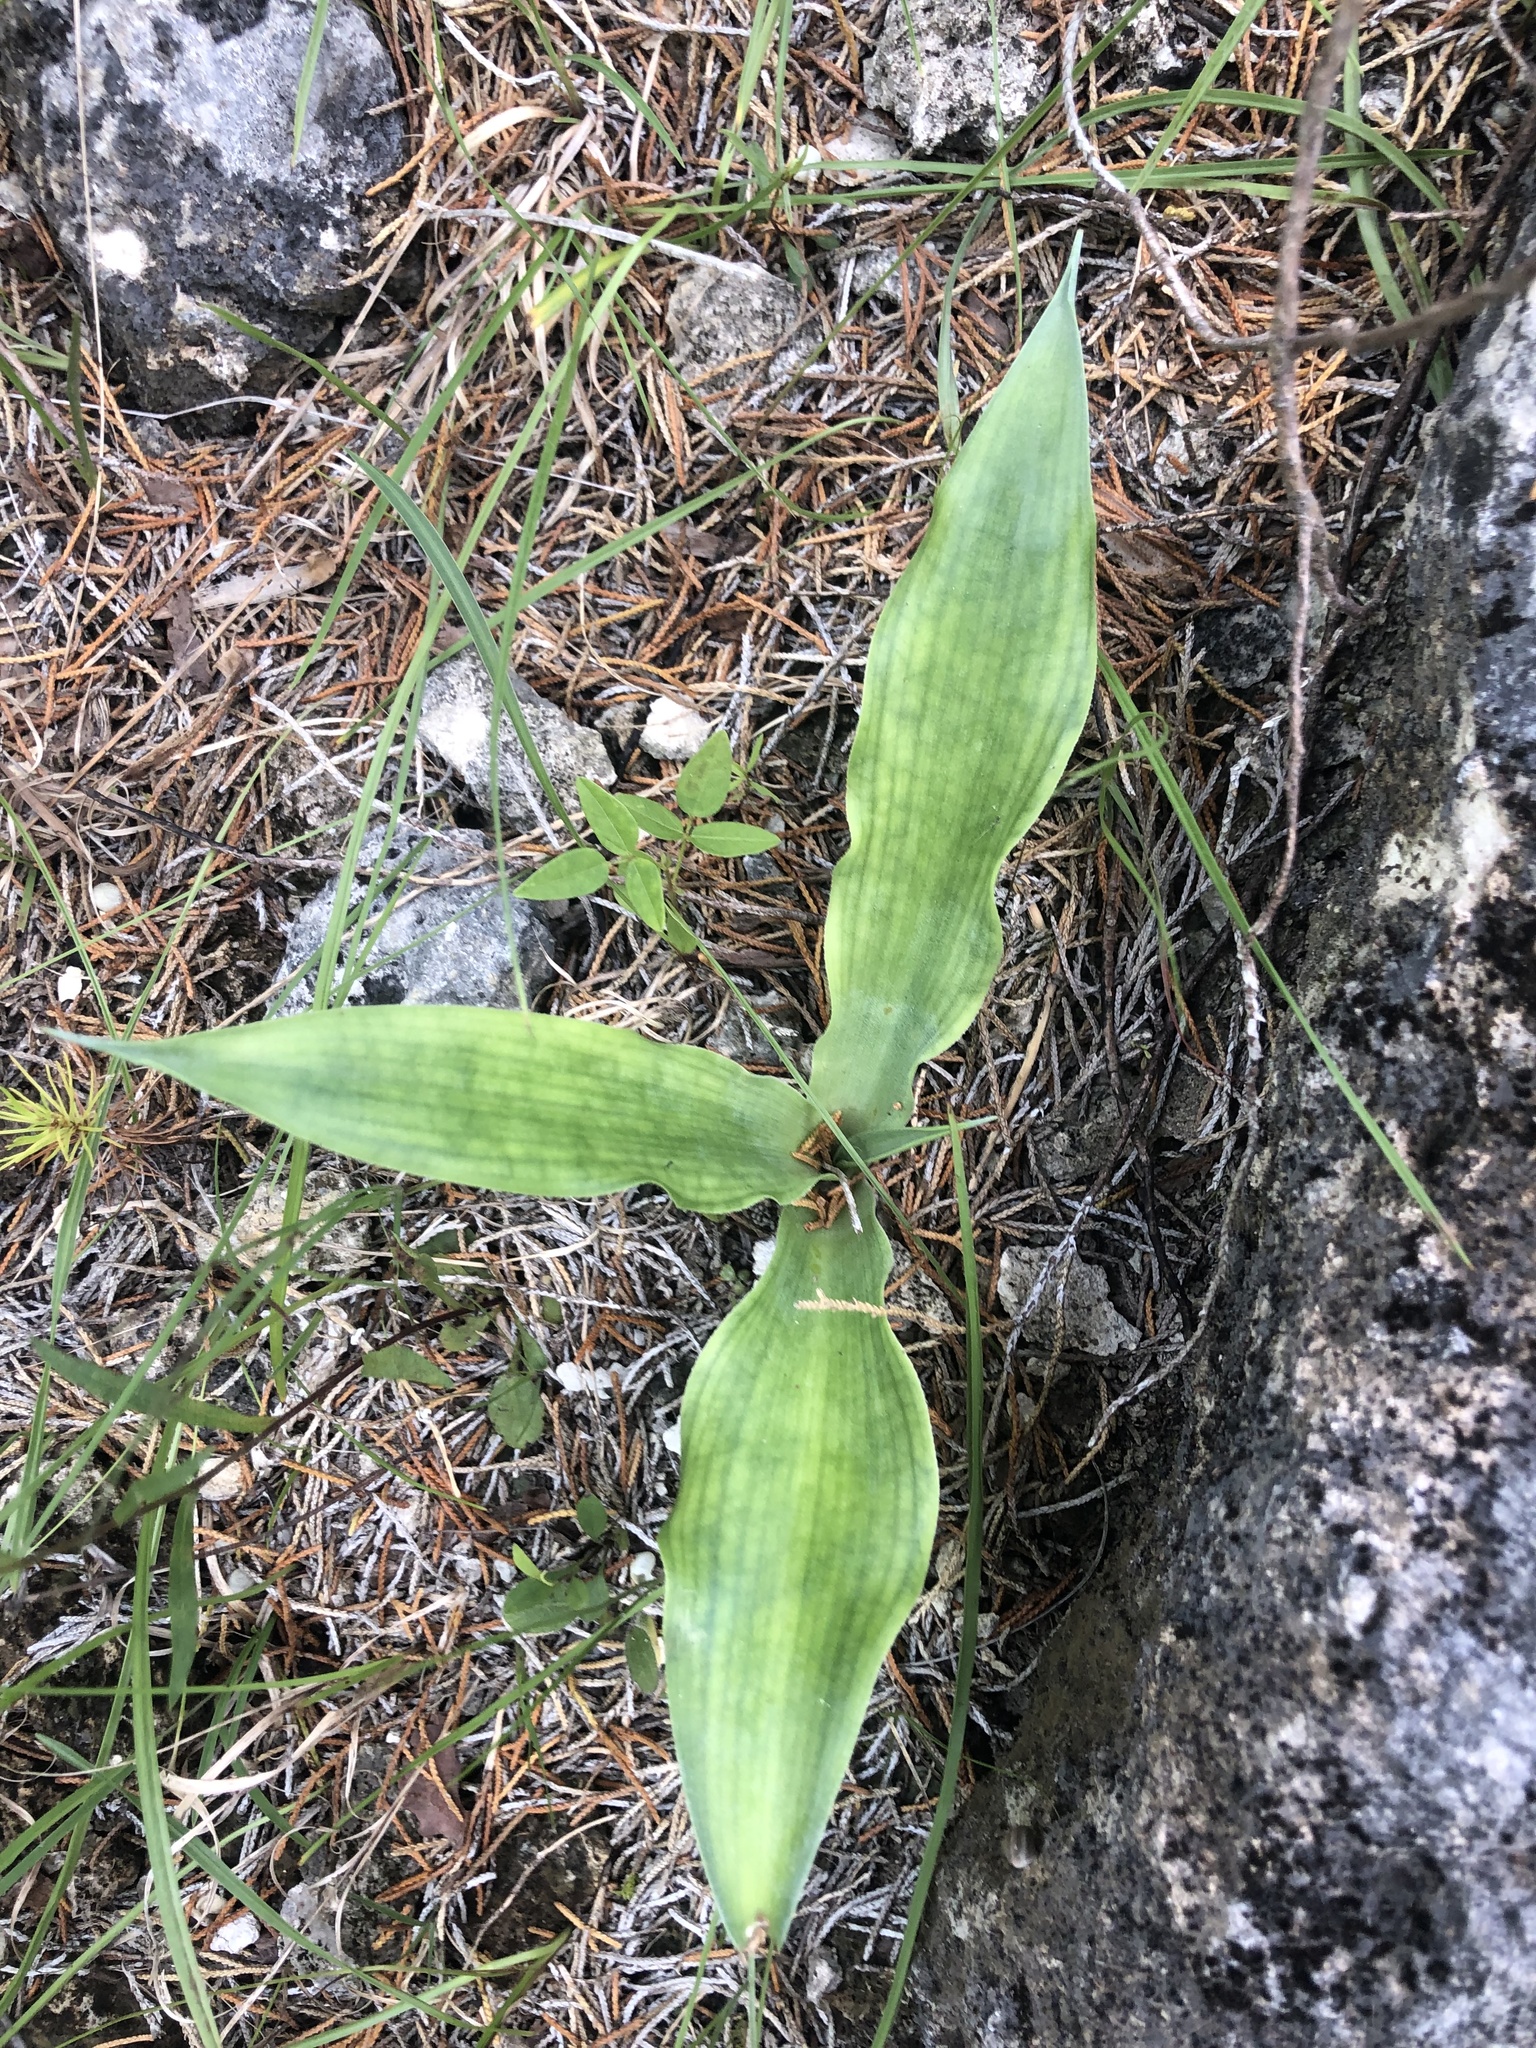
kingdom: Plantae
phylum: Tracheophyta
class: Liliopsida
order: Asparagales
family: Asparagaceae
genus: Agave
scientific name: Agave virginica
